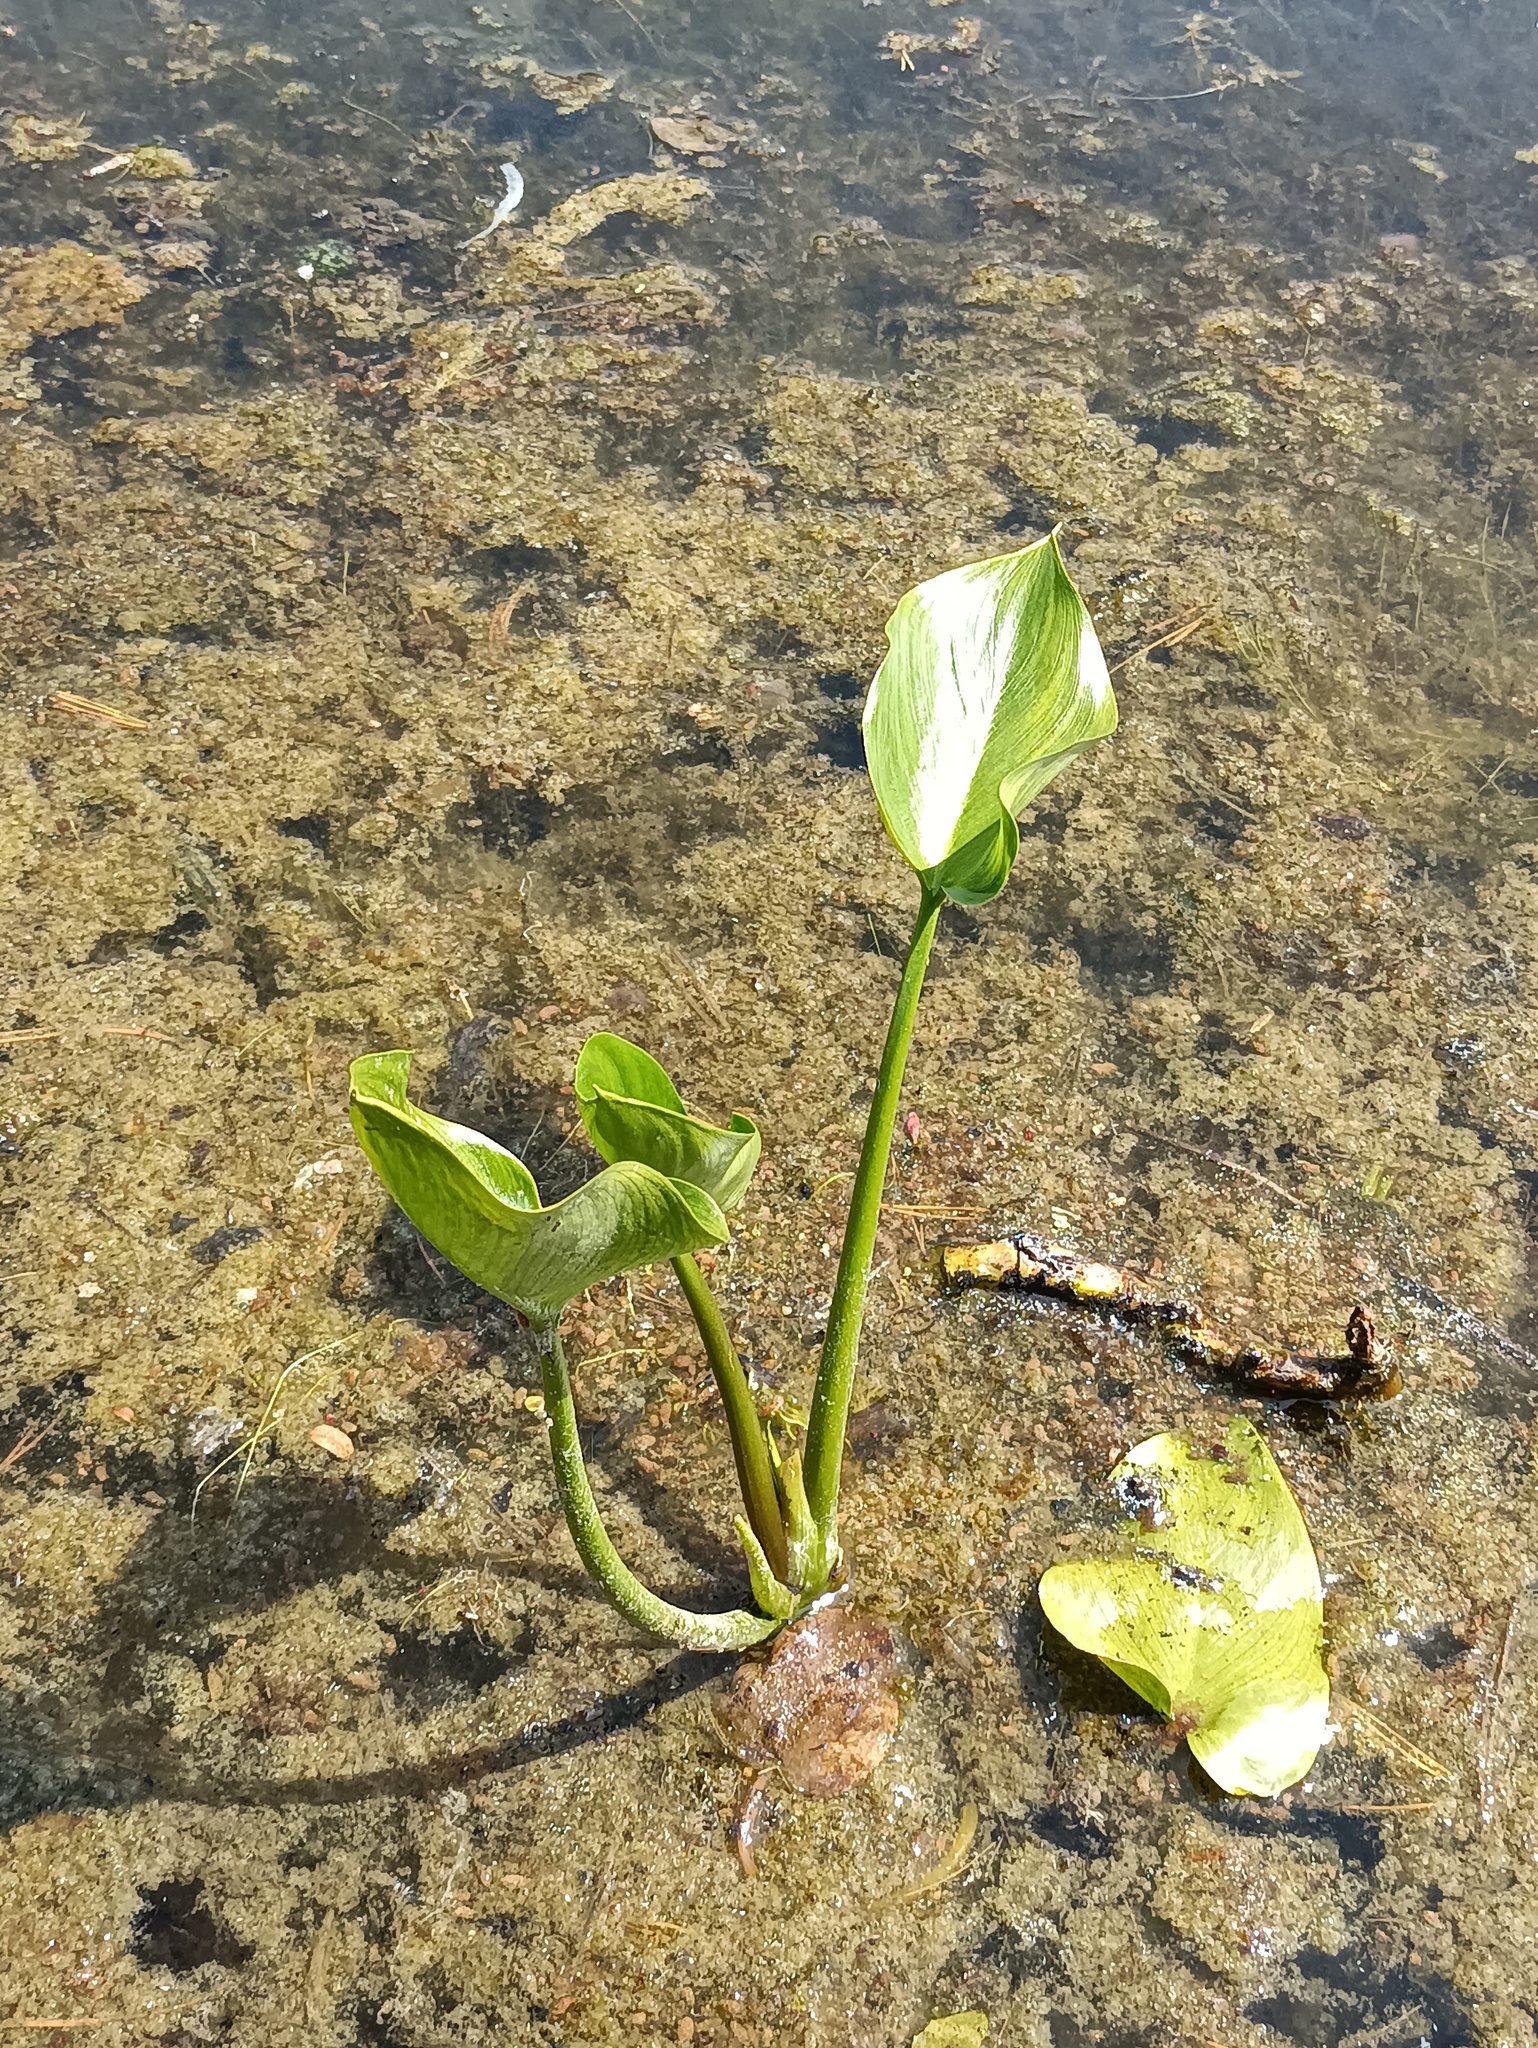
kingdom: Plantae
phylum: Tracheophyta
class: Liliopsida
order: Alismatales
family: Araceae
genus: Calla
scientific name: Calla palustris
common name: Bog arum
